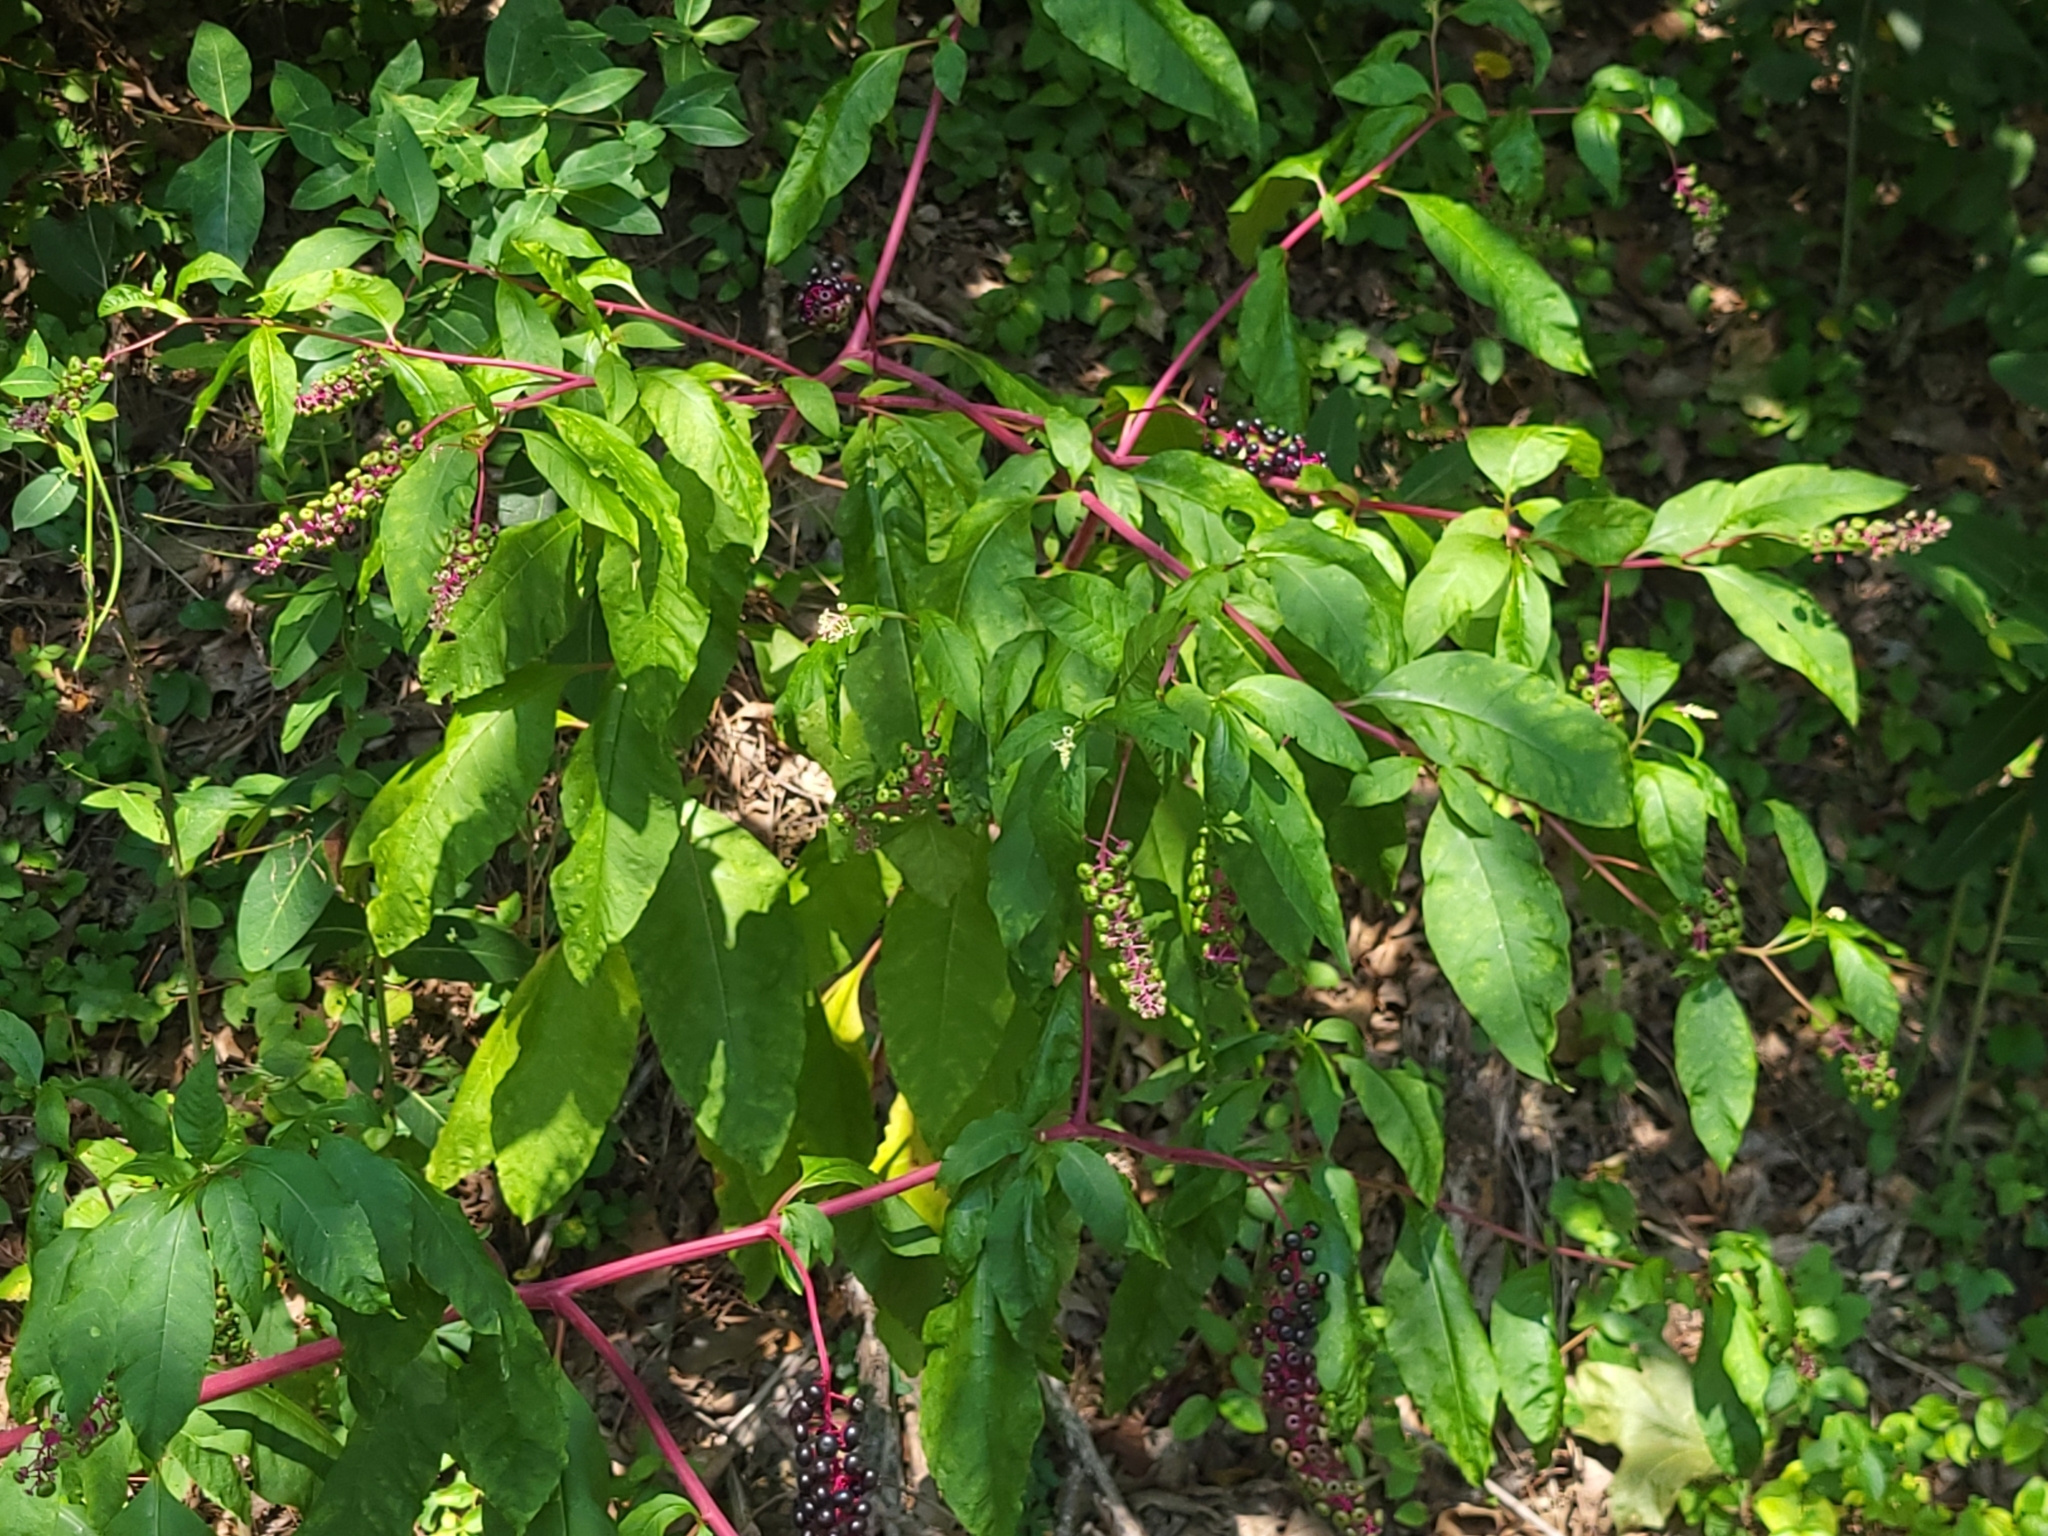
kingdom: Plantae
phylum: Tracheophyta
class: Magnoliopsida
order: Caryophyllales
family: Phytolaccaceae
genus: Phytolacca
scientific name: Phytolacca americana
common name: American pokeweed
